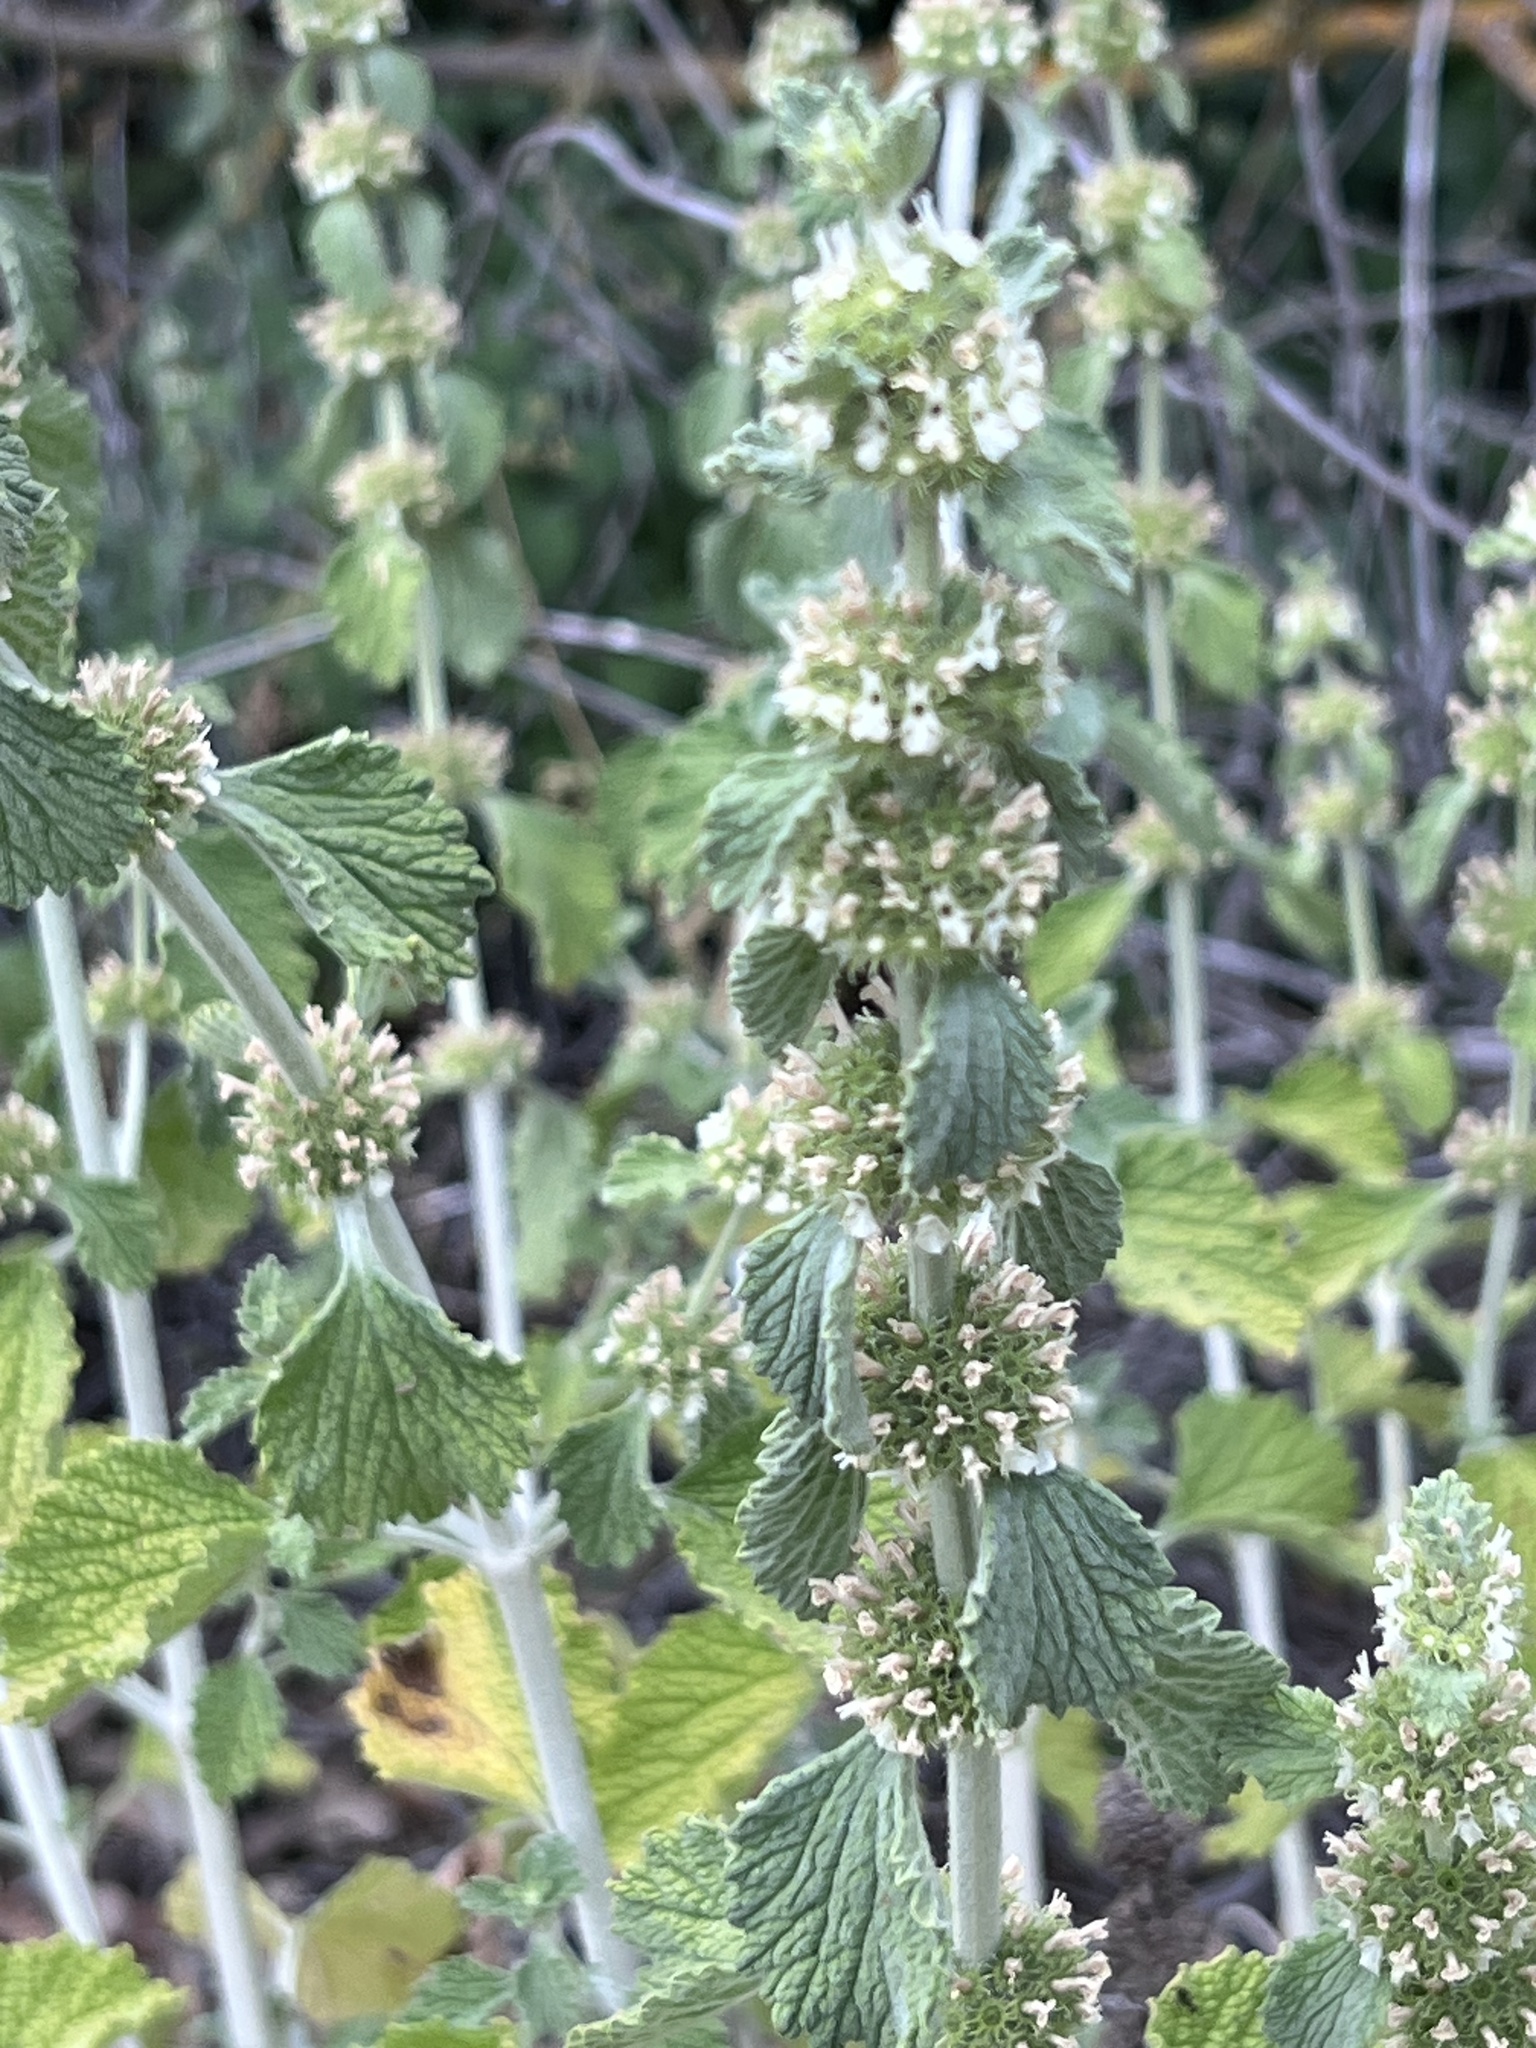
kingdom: Plantae
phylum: Tracheophyta
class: Magnoliopsida
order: Lamiales
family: Lamiaceae
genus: Marrubium
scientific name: Marrubium vulgare
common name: Horehound
